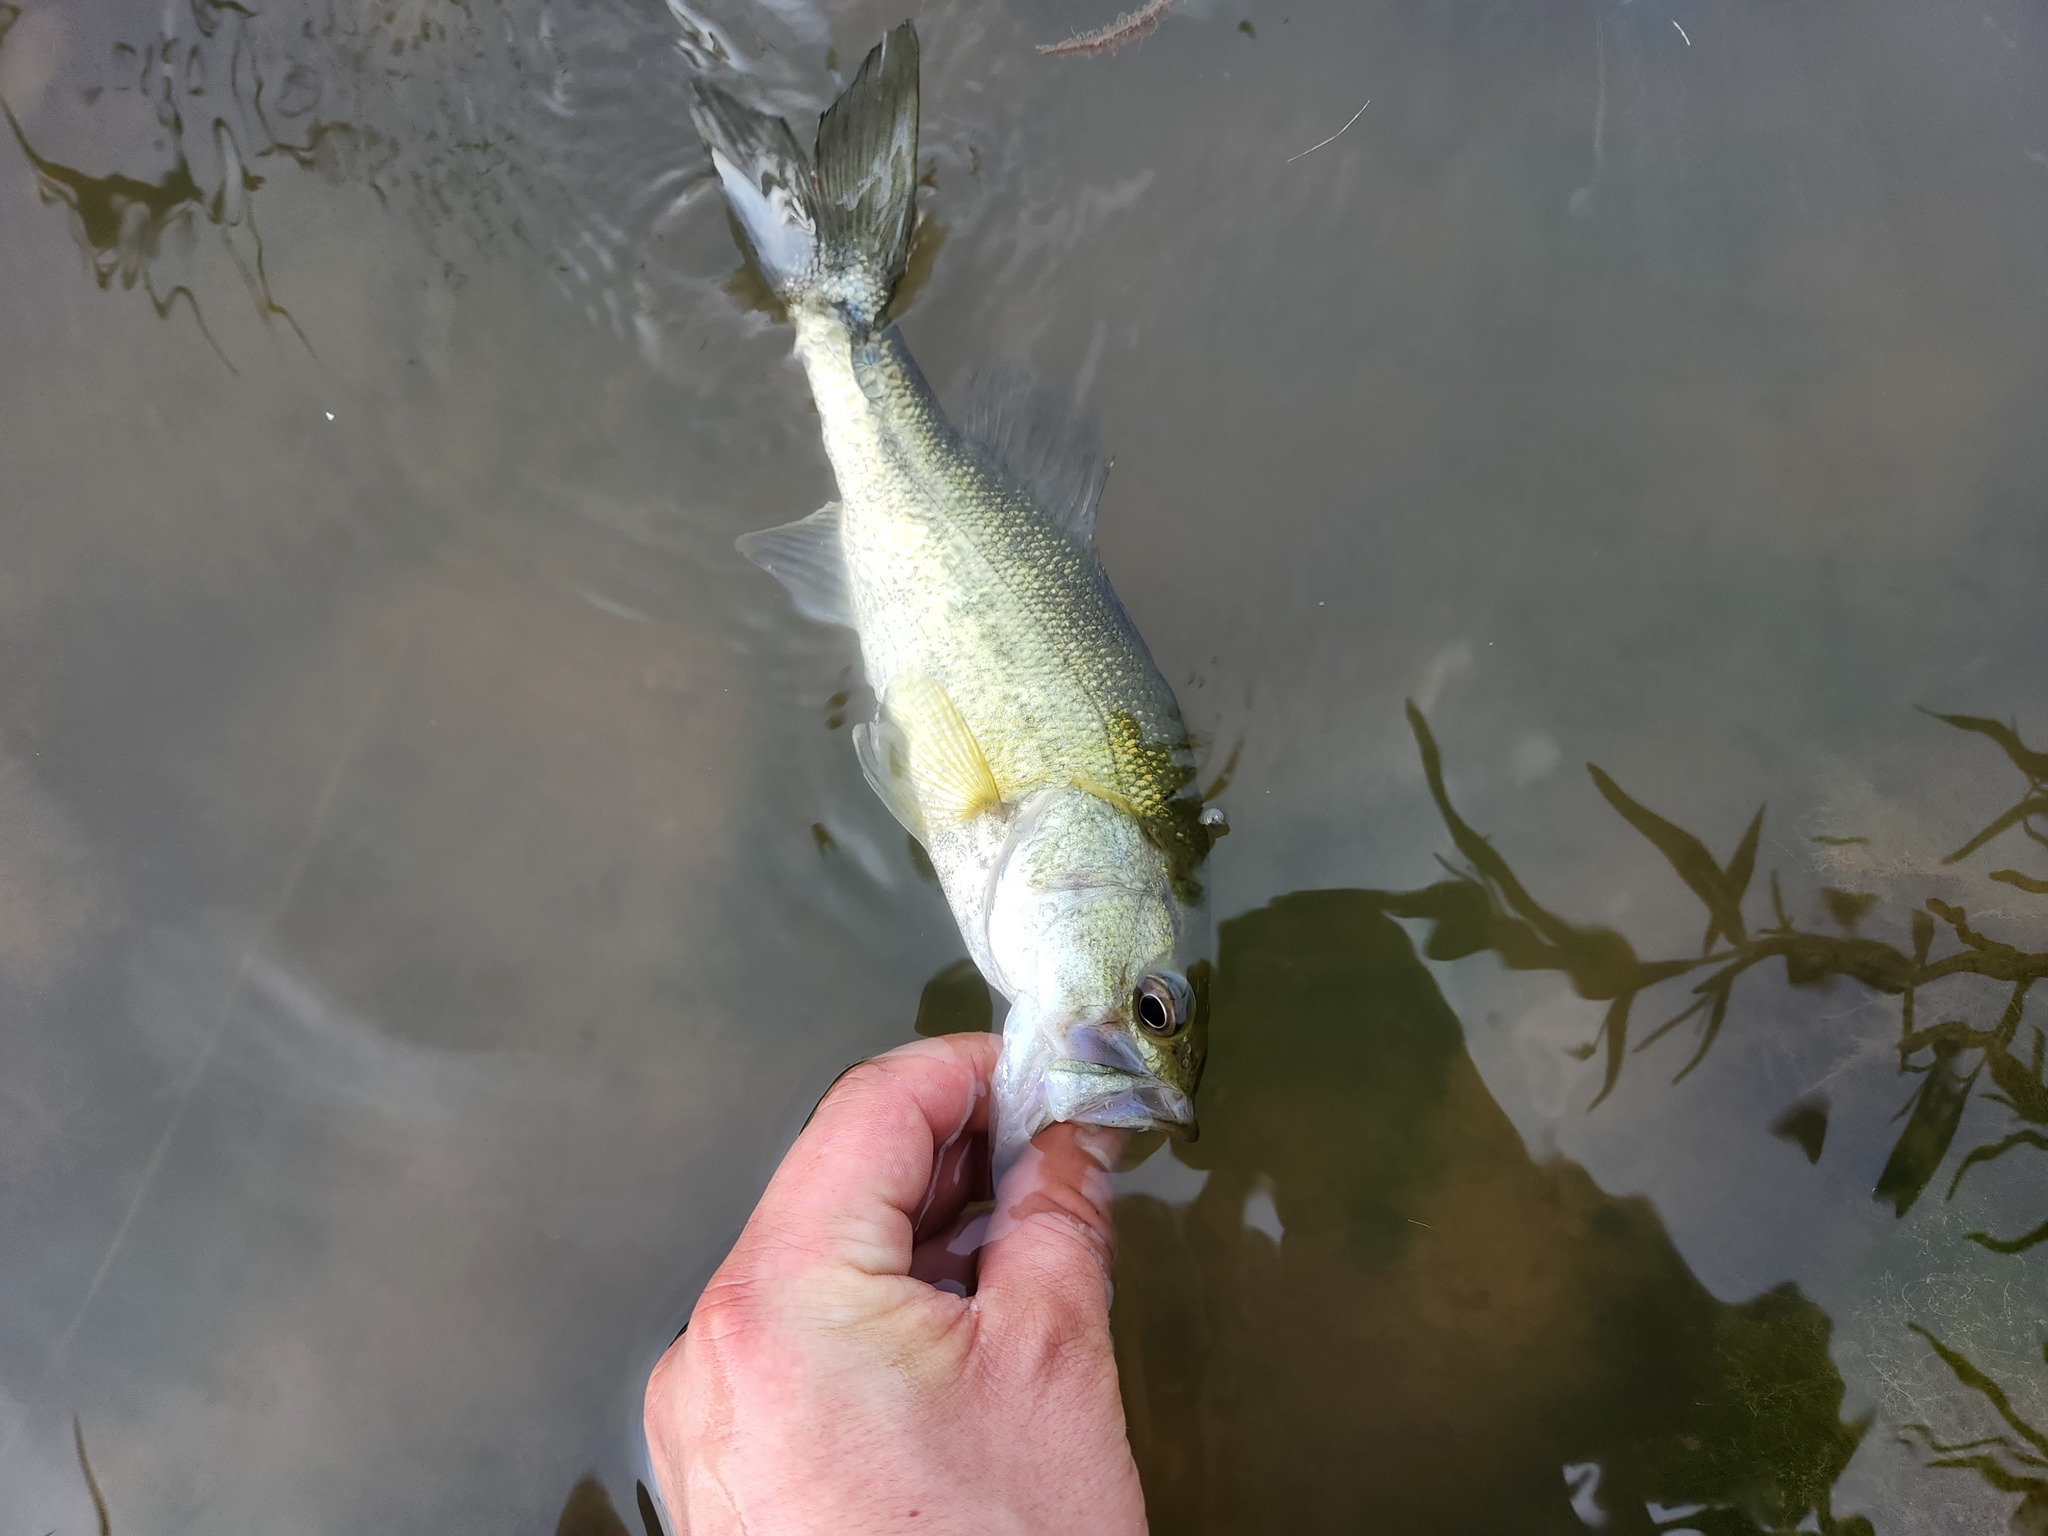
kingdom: Animalia
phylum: Chordata
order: Perciformes
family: Centrarchidae
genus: Micropterus
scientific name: Micropterus
